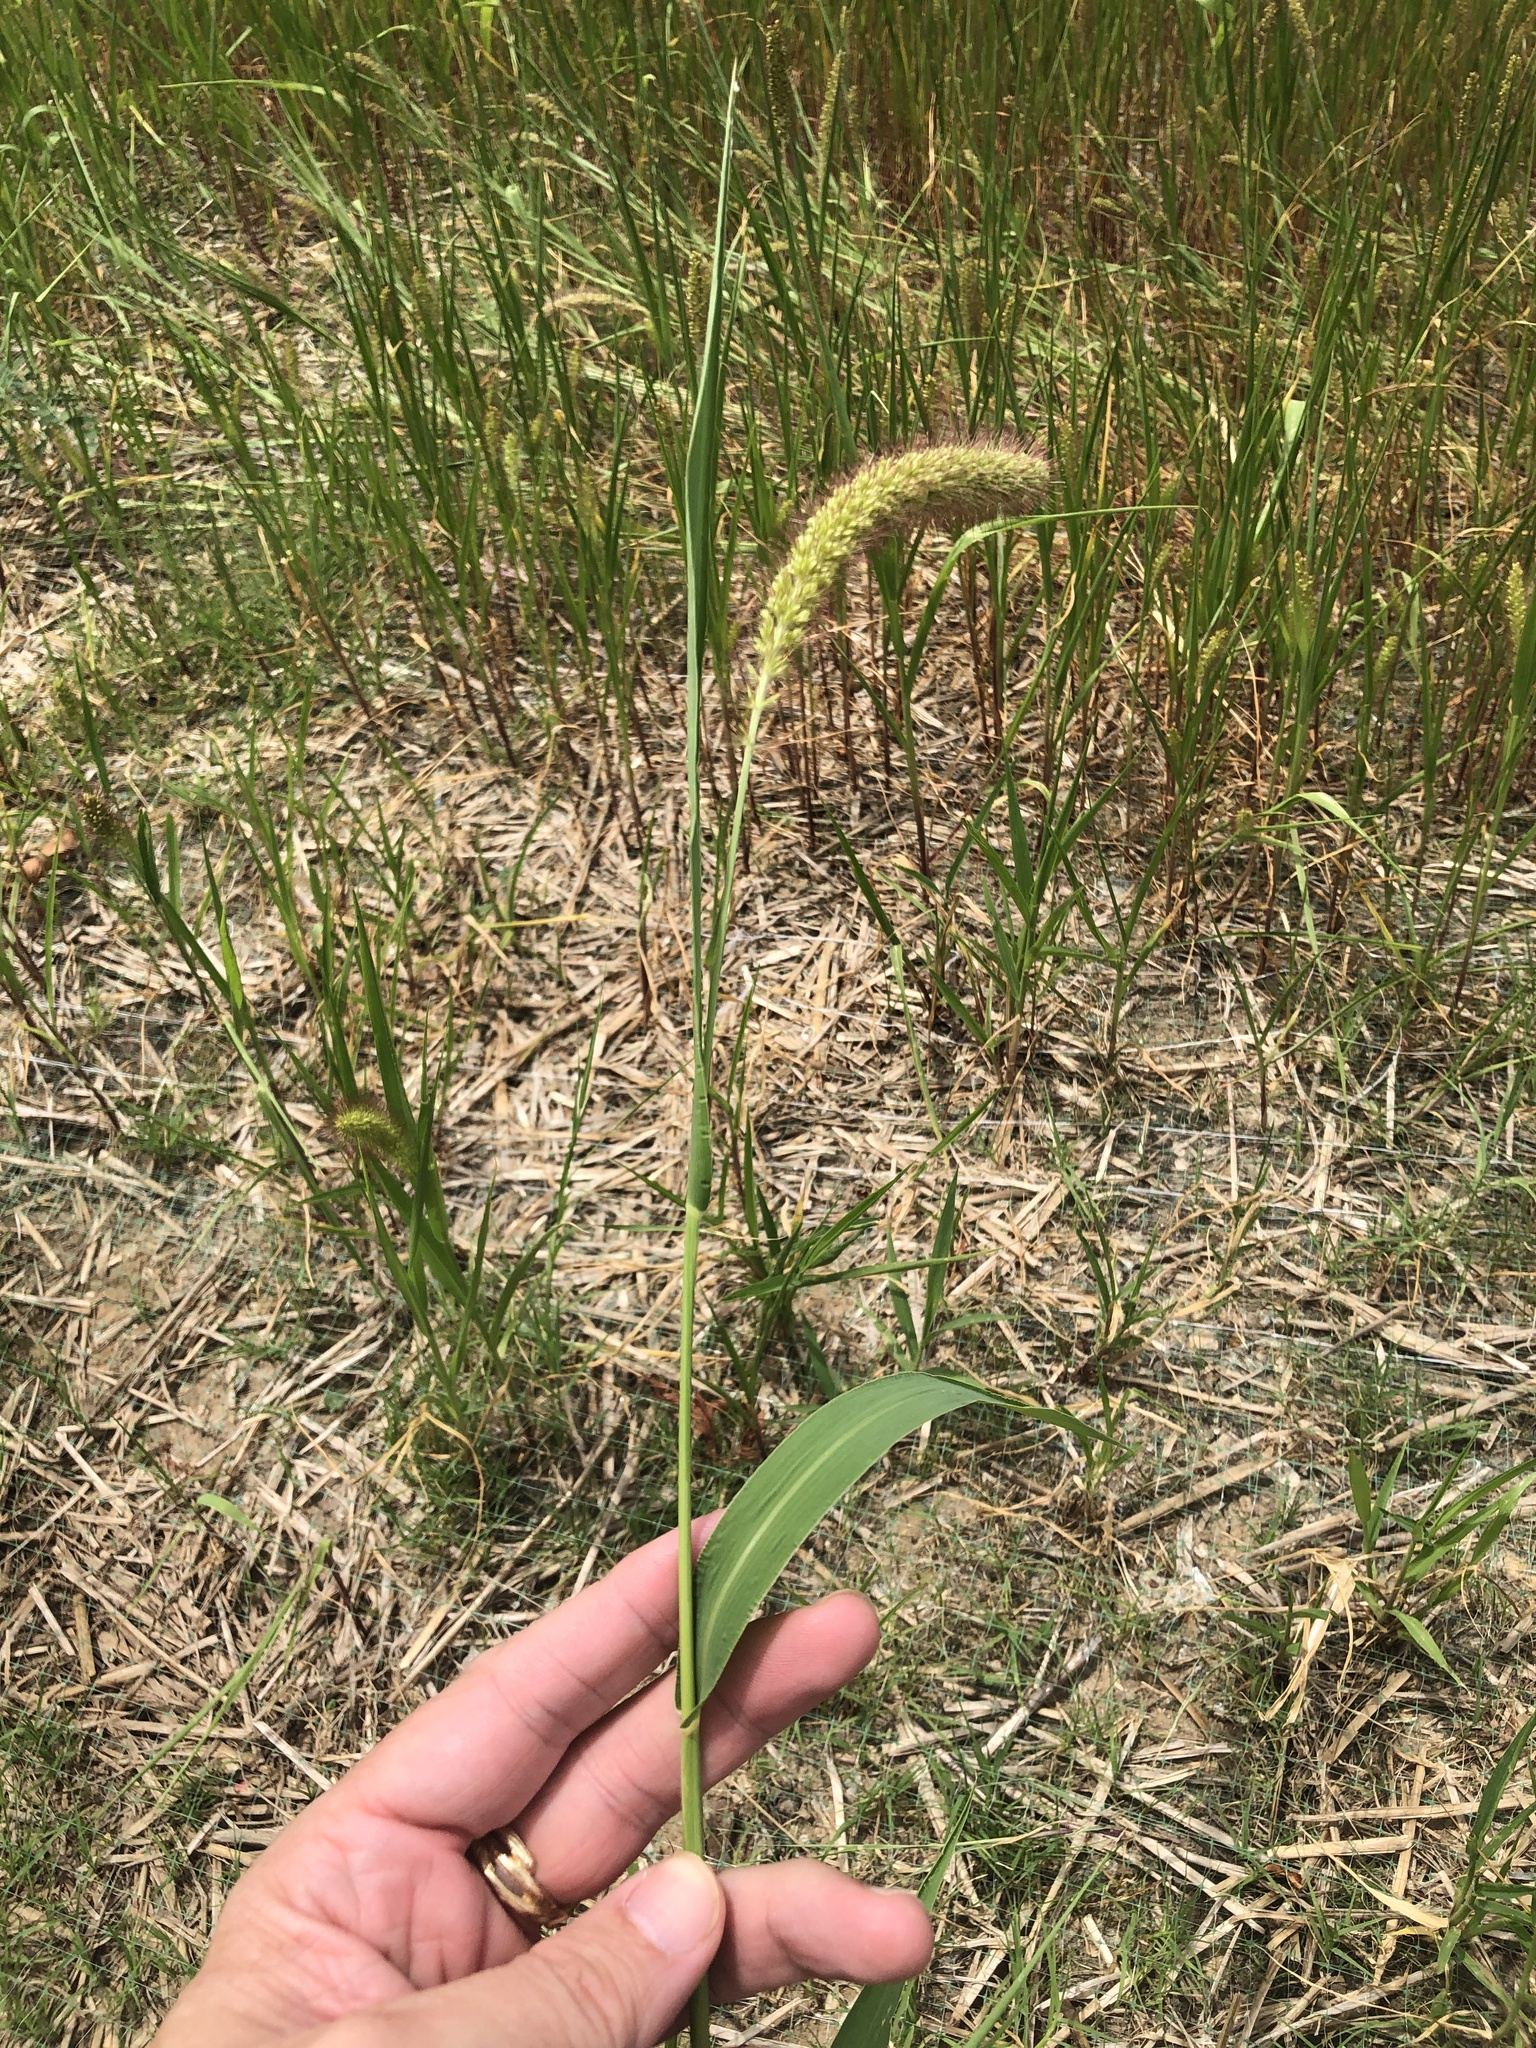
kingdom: Plantae
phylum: Tracheophyta
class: Liliopsida
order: Poales
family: Poaceae
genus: Setaria
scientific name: Setaria viridis
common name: Green bristlegrass
